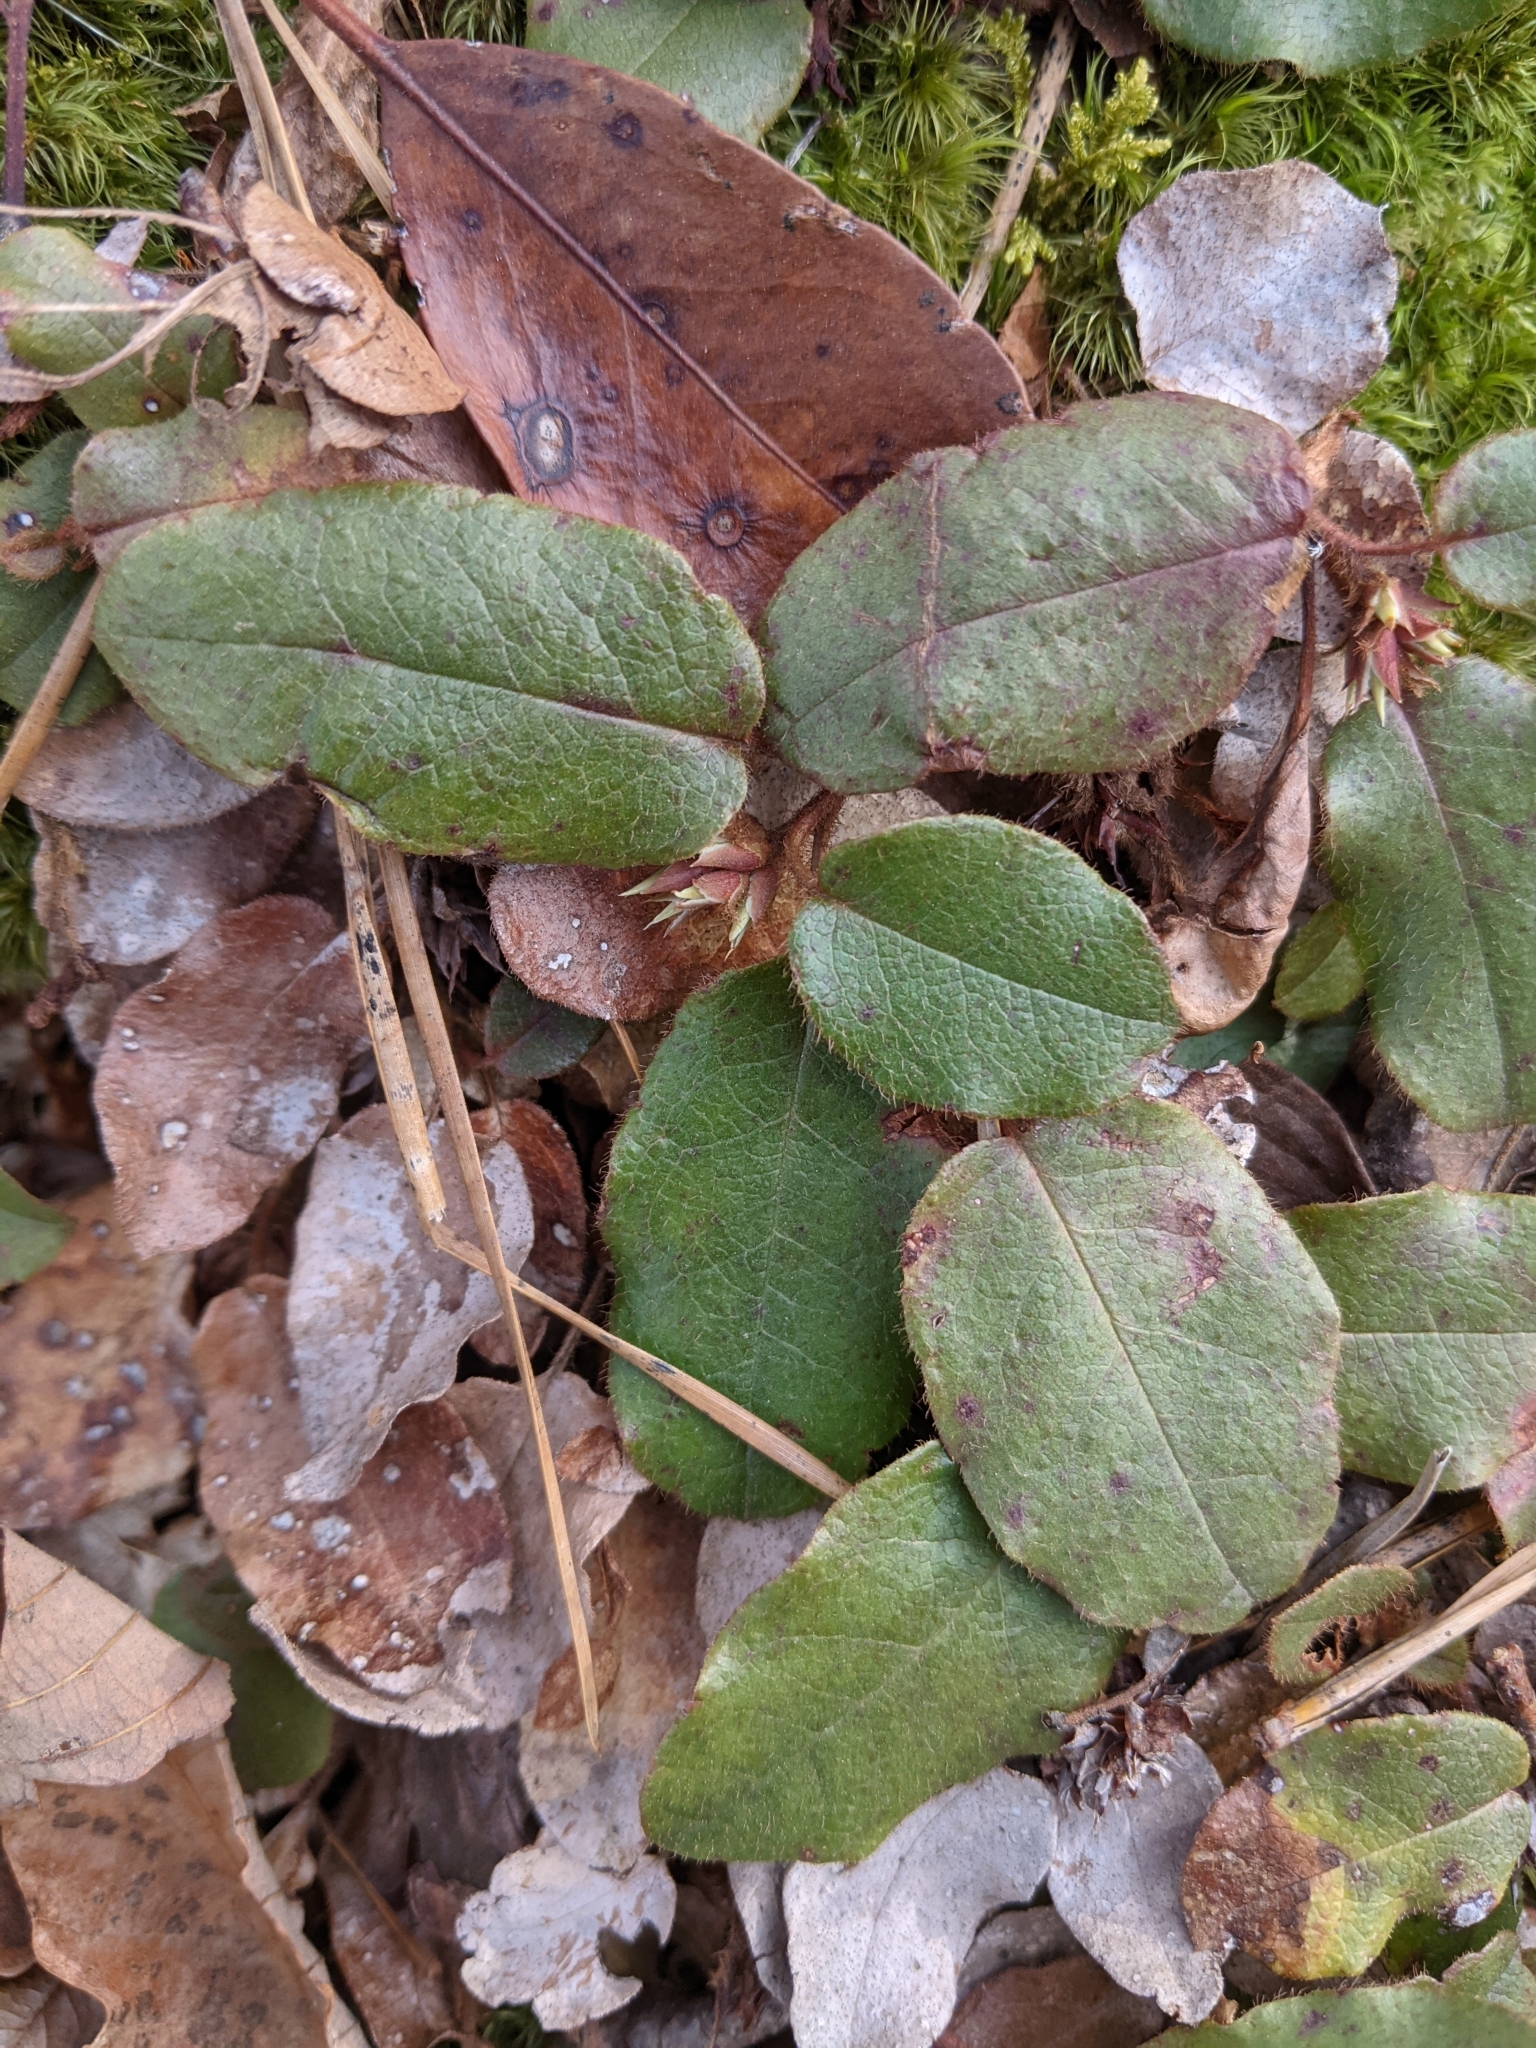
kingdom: Plantae
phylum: Tracheophyta
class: Magnoliopsida
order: Ericales
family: Ericaceae
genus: Epigaea
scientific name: Epigaea repens
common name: Gravelroot
